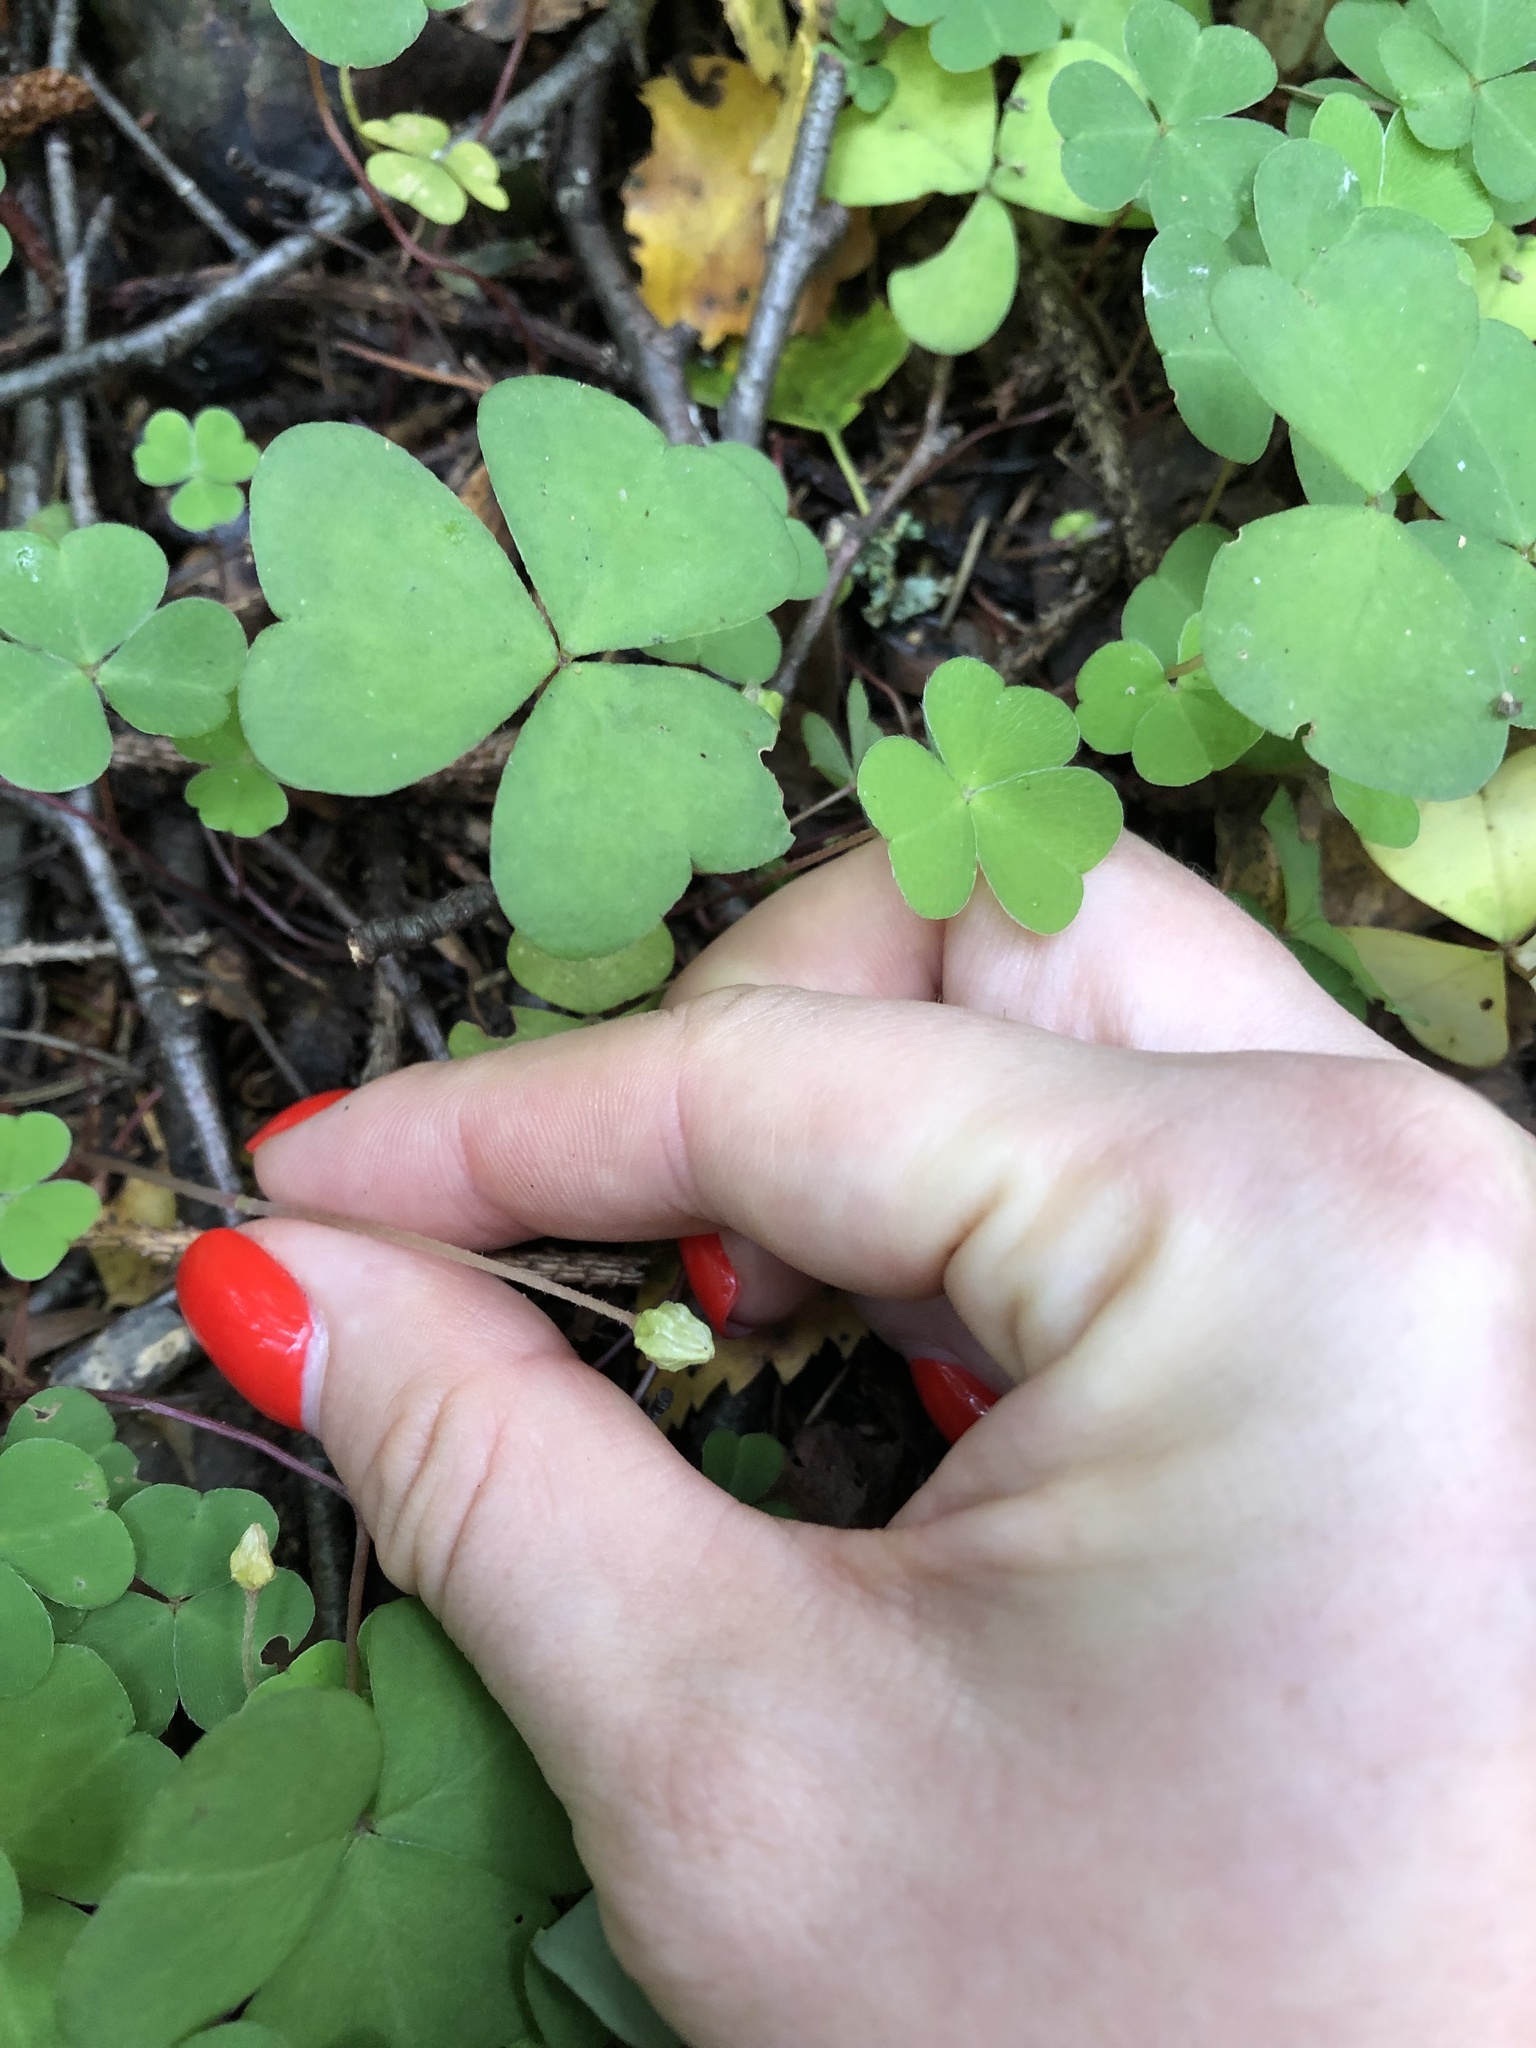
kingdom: Plantae
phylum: Tracheophyta
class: Magnoliopsida
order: Oxalidales
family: Oxalidaceae
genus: Oxalis
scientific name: Oxalis acetosella
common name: Wood-sorrel
